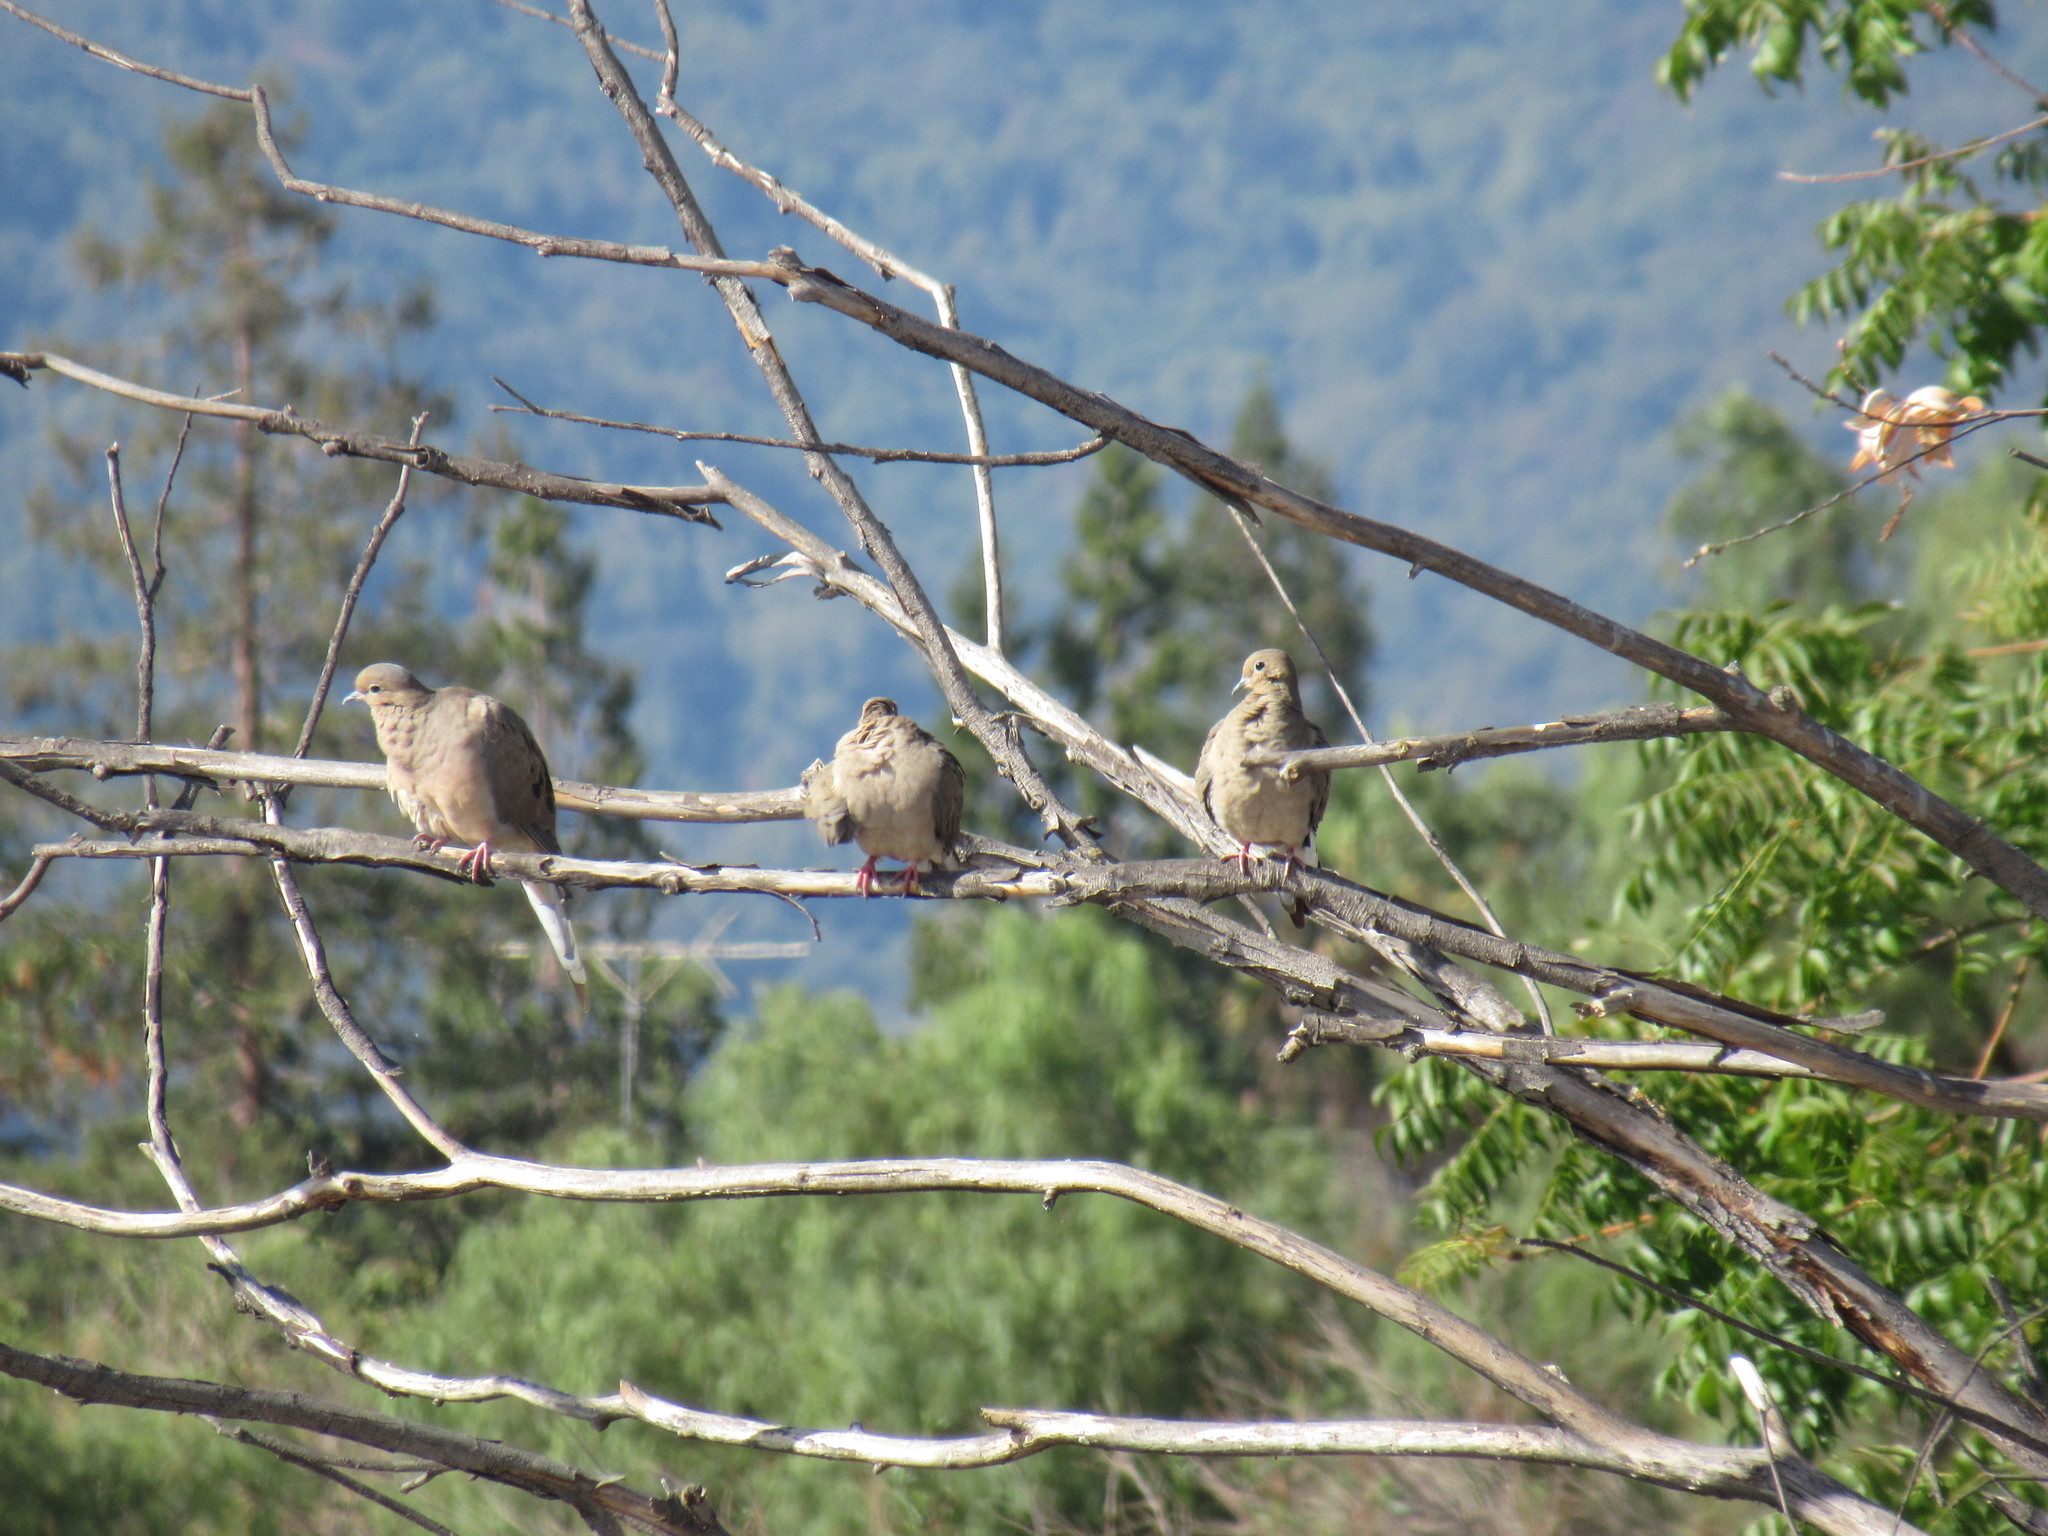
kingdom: Animalia
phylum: Chordata
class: Aves
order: Columbiformes
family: Columbidae
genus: Zenaida
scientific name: Zenaida macroura
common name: Mourning dove
